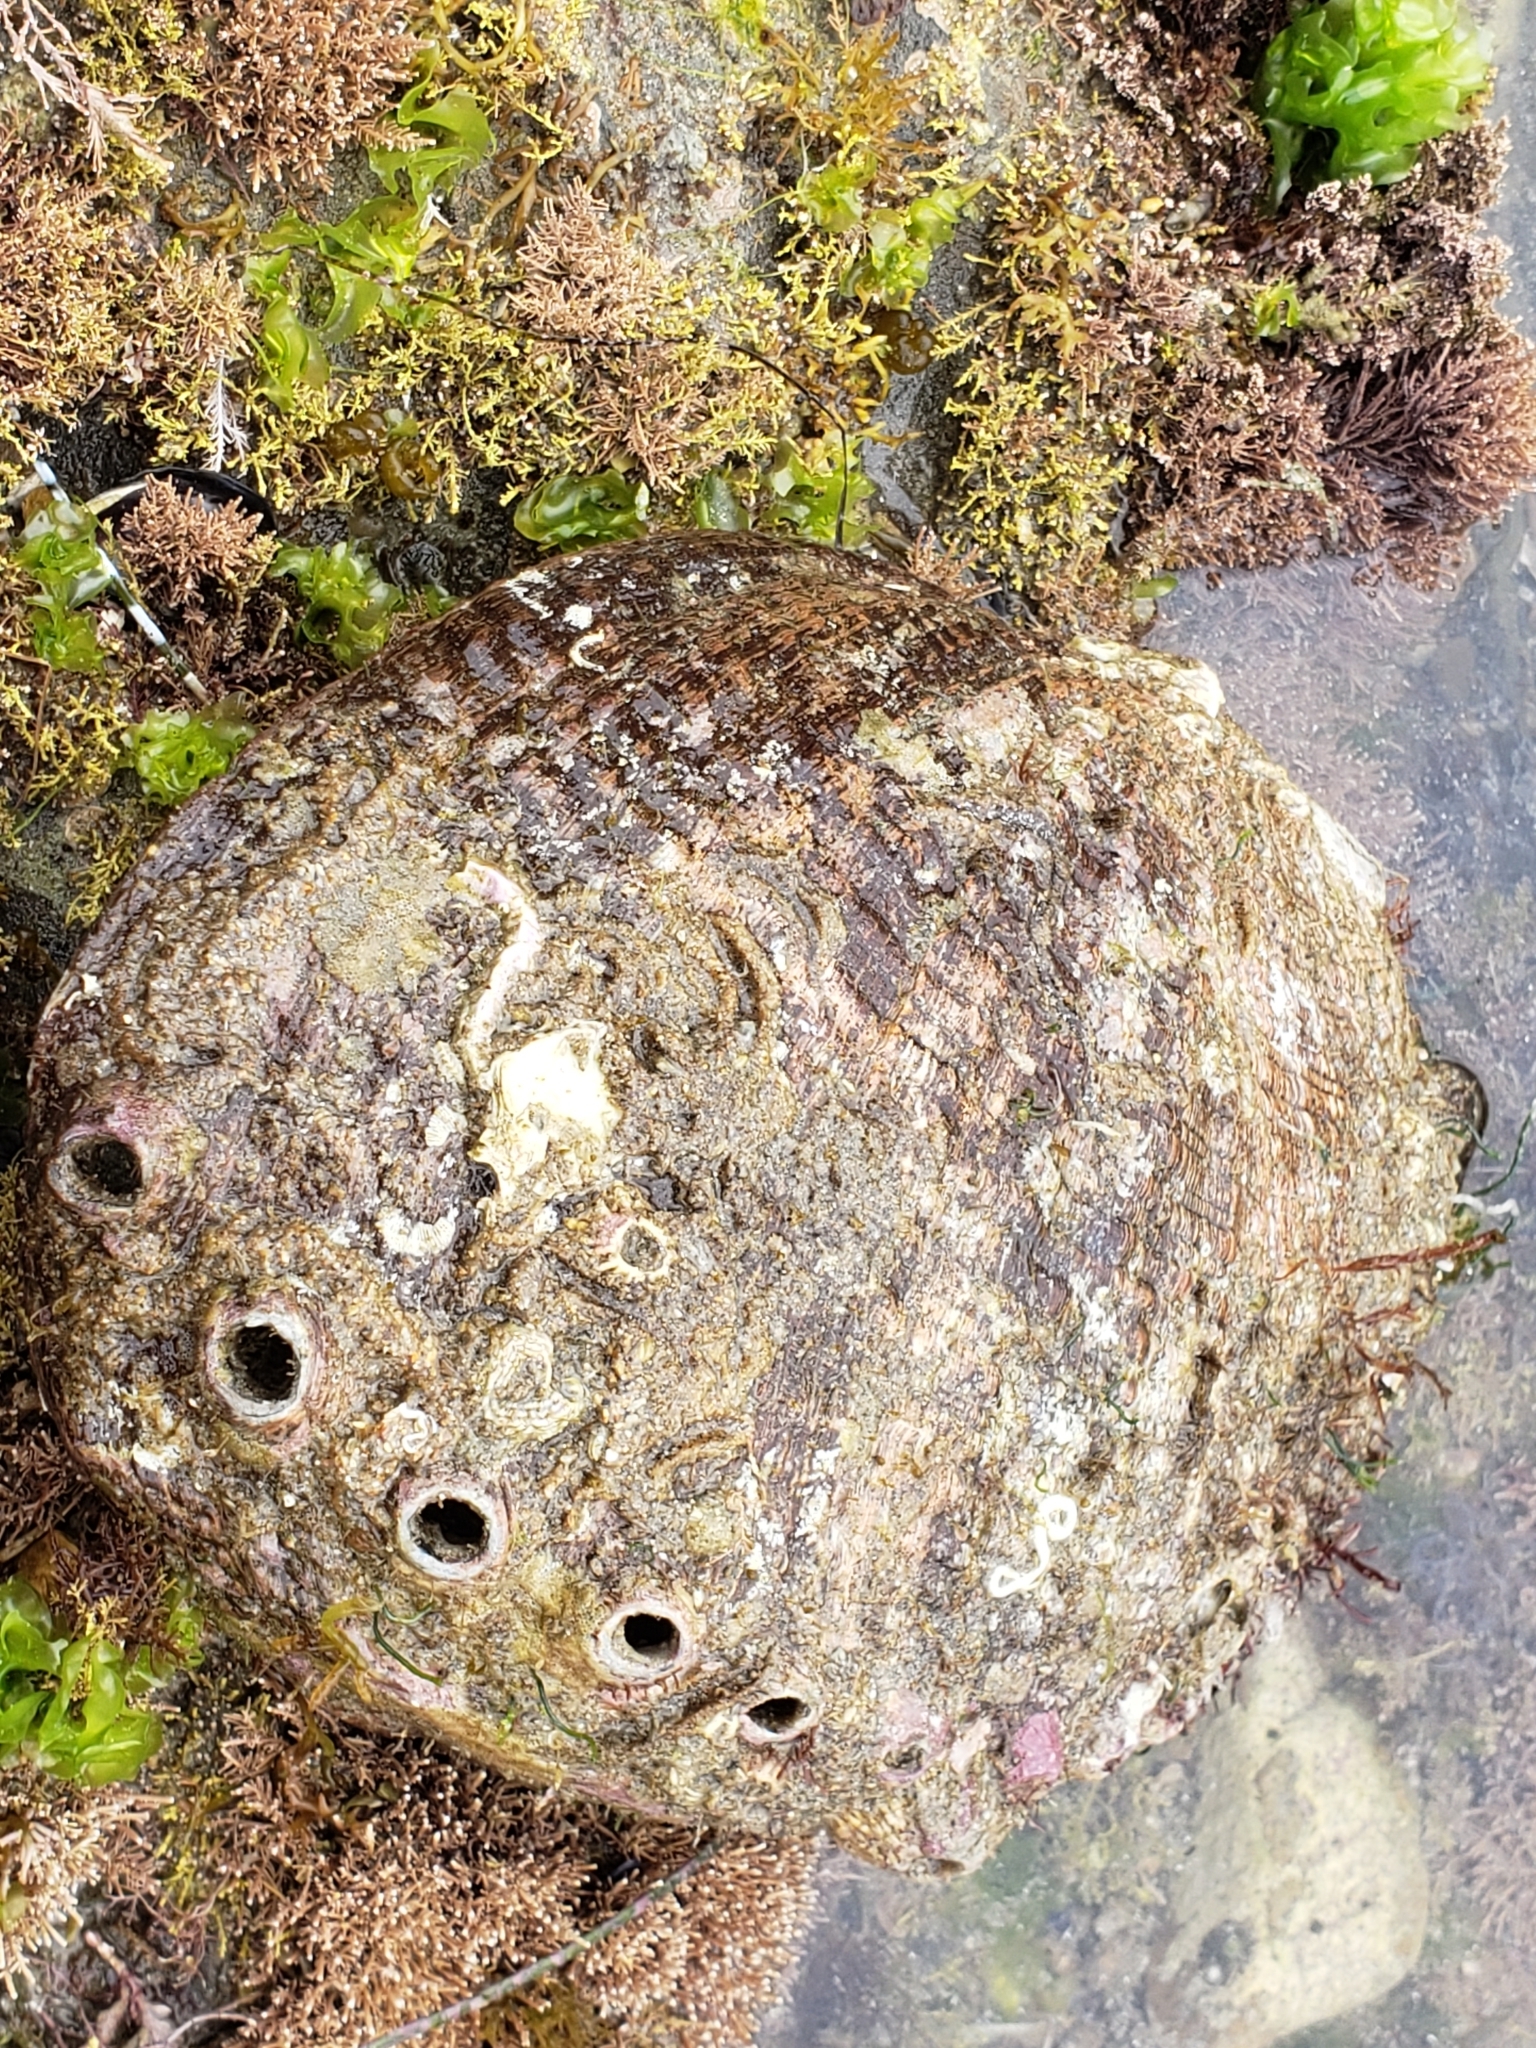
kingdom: Animalia
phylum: Mollusca
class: Gastropoda
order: Lepetellida
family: Haliotidae
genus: Haliotis
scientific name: Haliotis fulgens
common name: Green abalone
